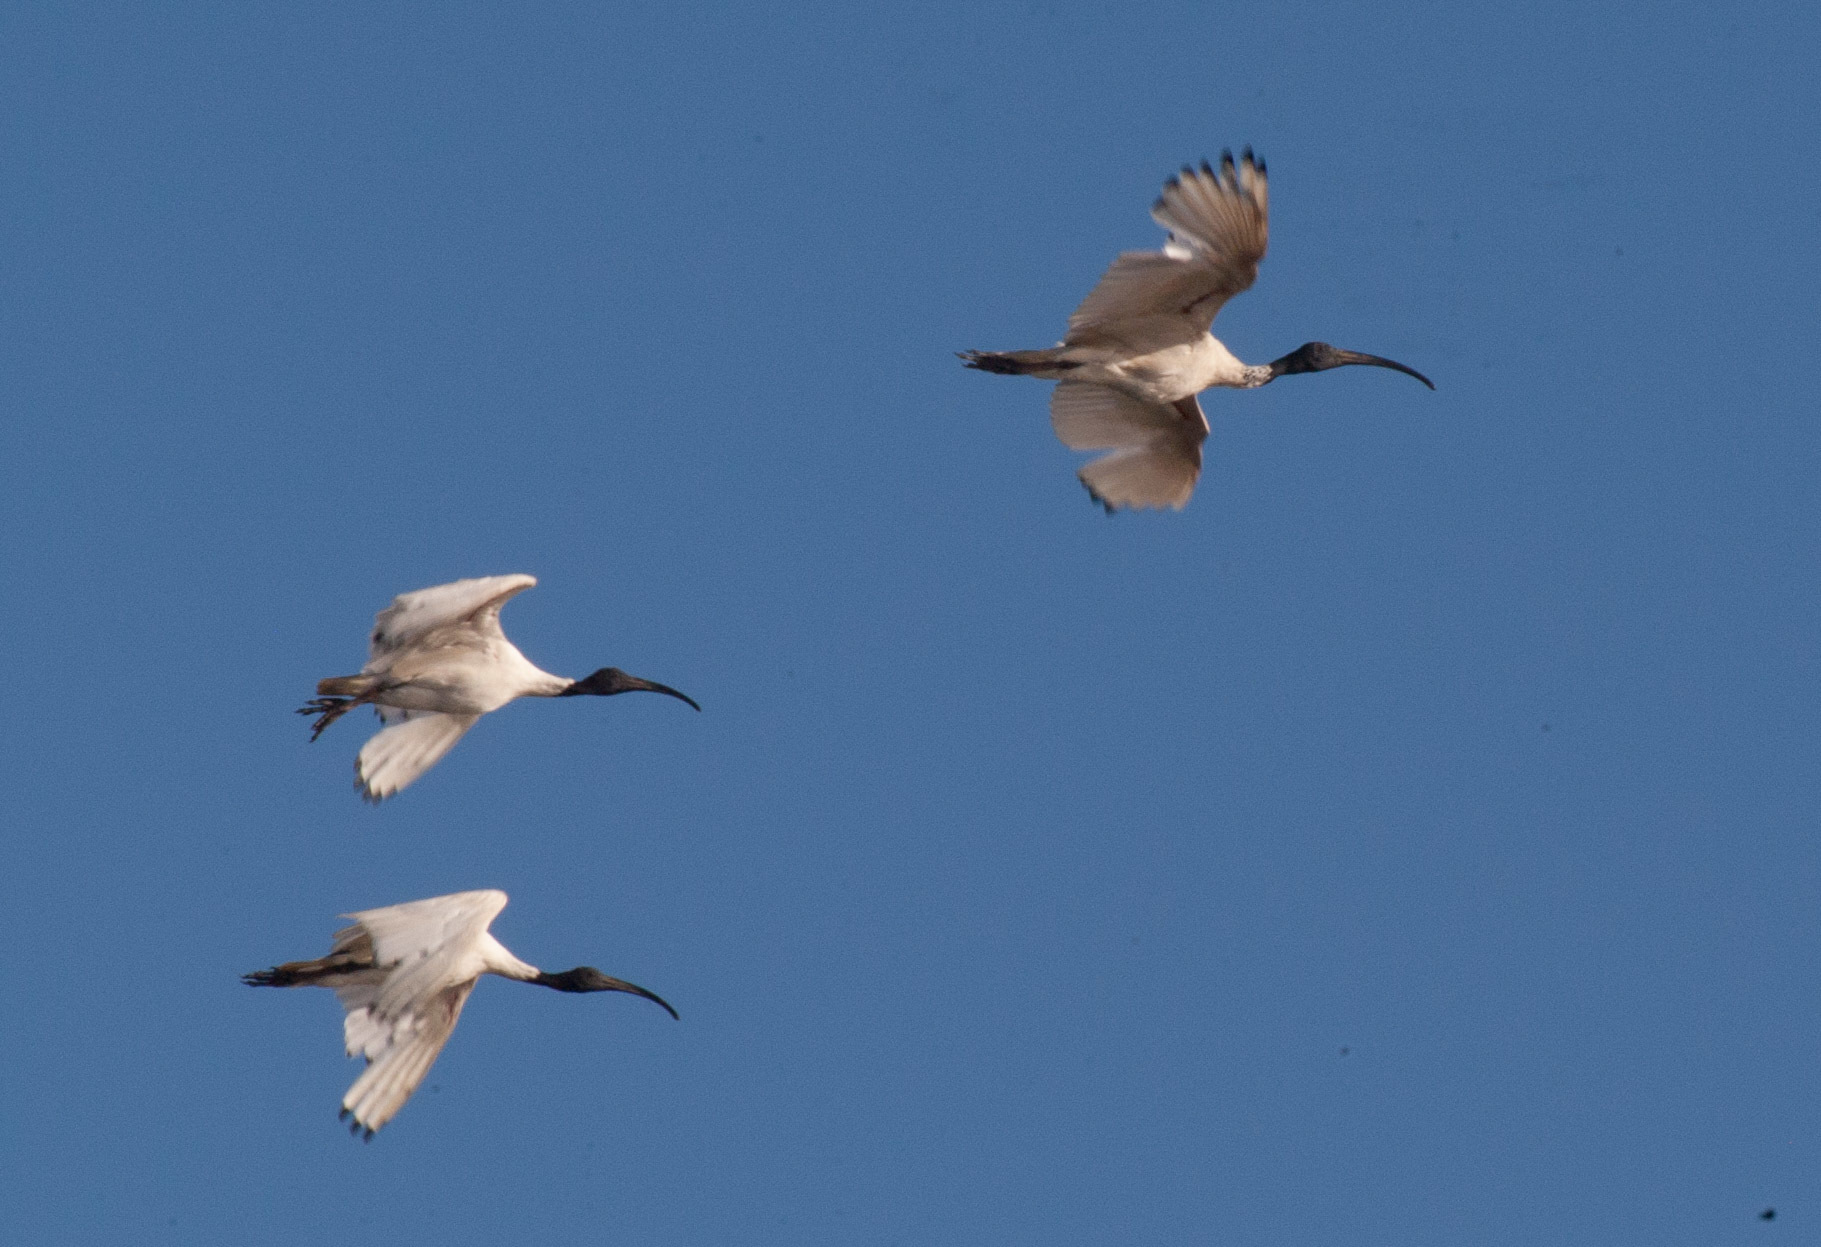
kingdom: Animalia
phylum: Chordata
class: Aves
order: Pelecaniformes
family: Threskiornithidae
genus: Threskiornis
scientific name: Threskiornis molucca
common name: Australian white ibis
